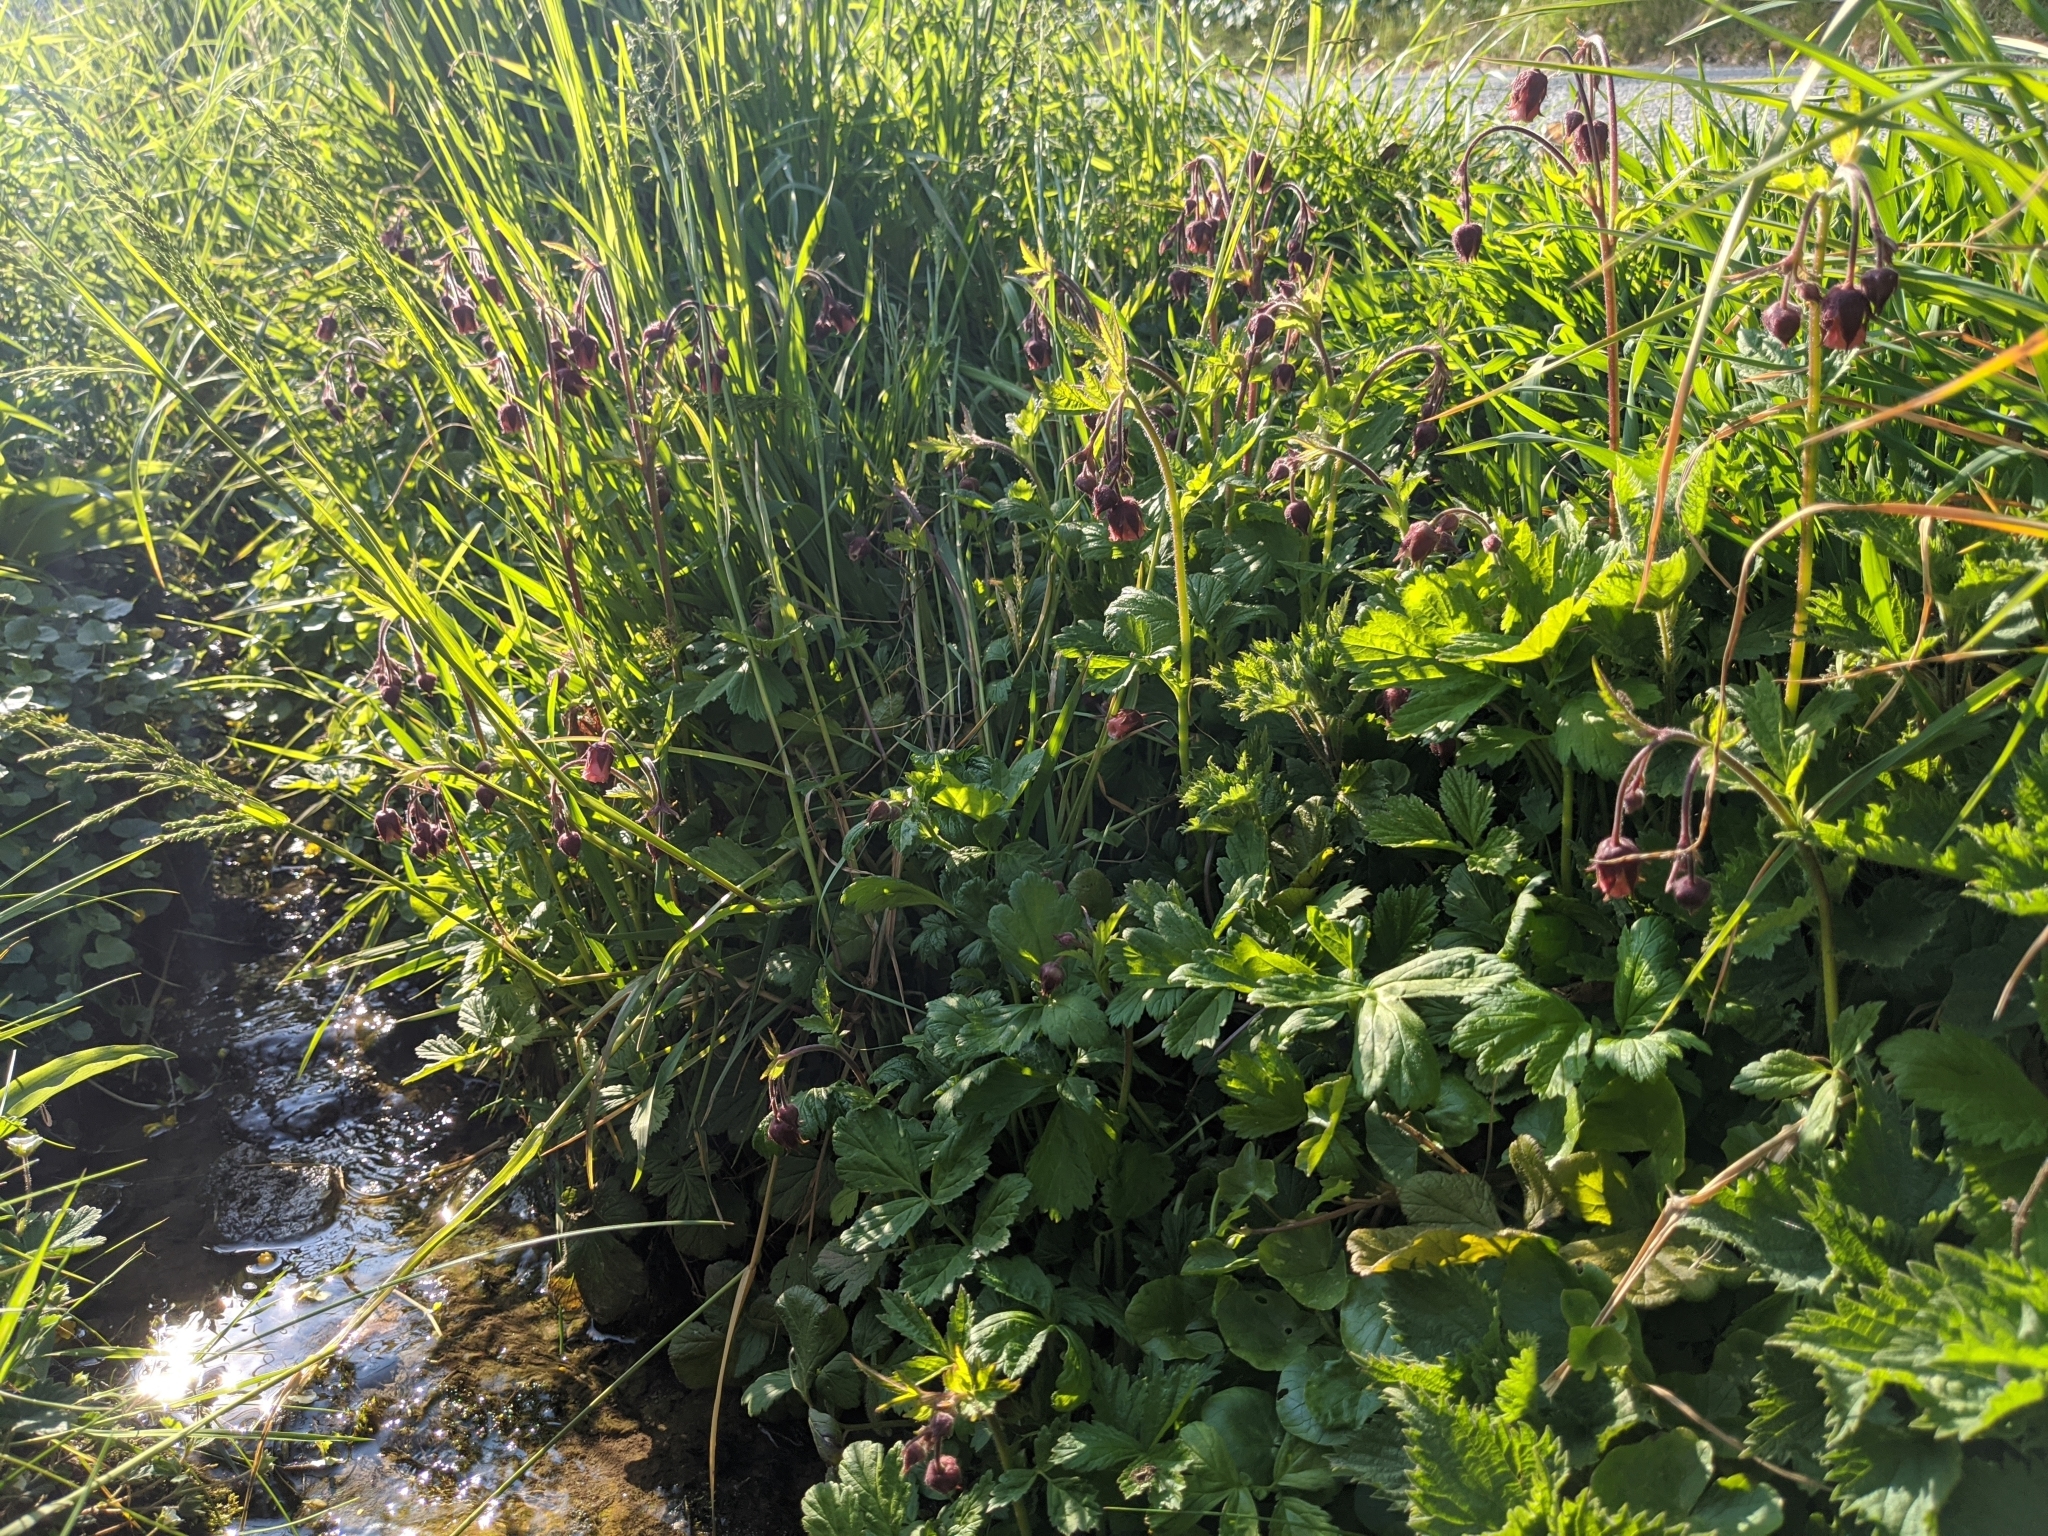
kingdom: Plantae
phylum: Tracheophyta
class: Magnoliopsida
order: Rosales
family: Rosaceae
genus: Geum
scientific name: Geum rivale
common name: Water avens
